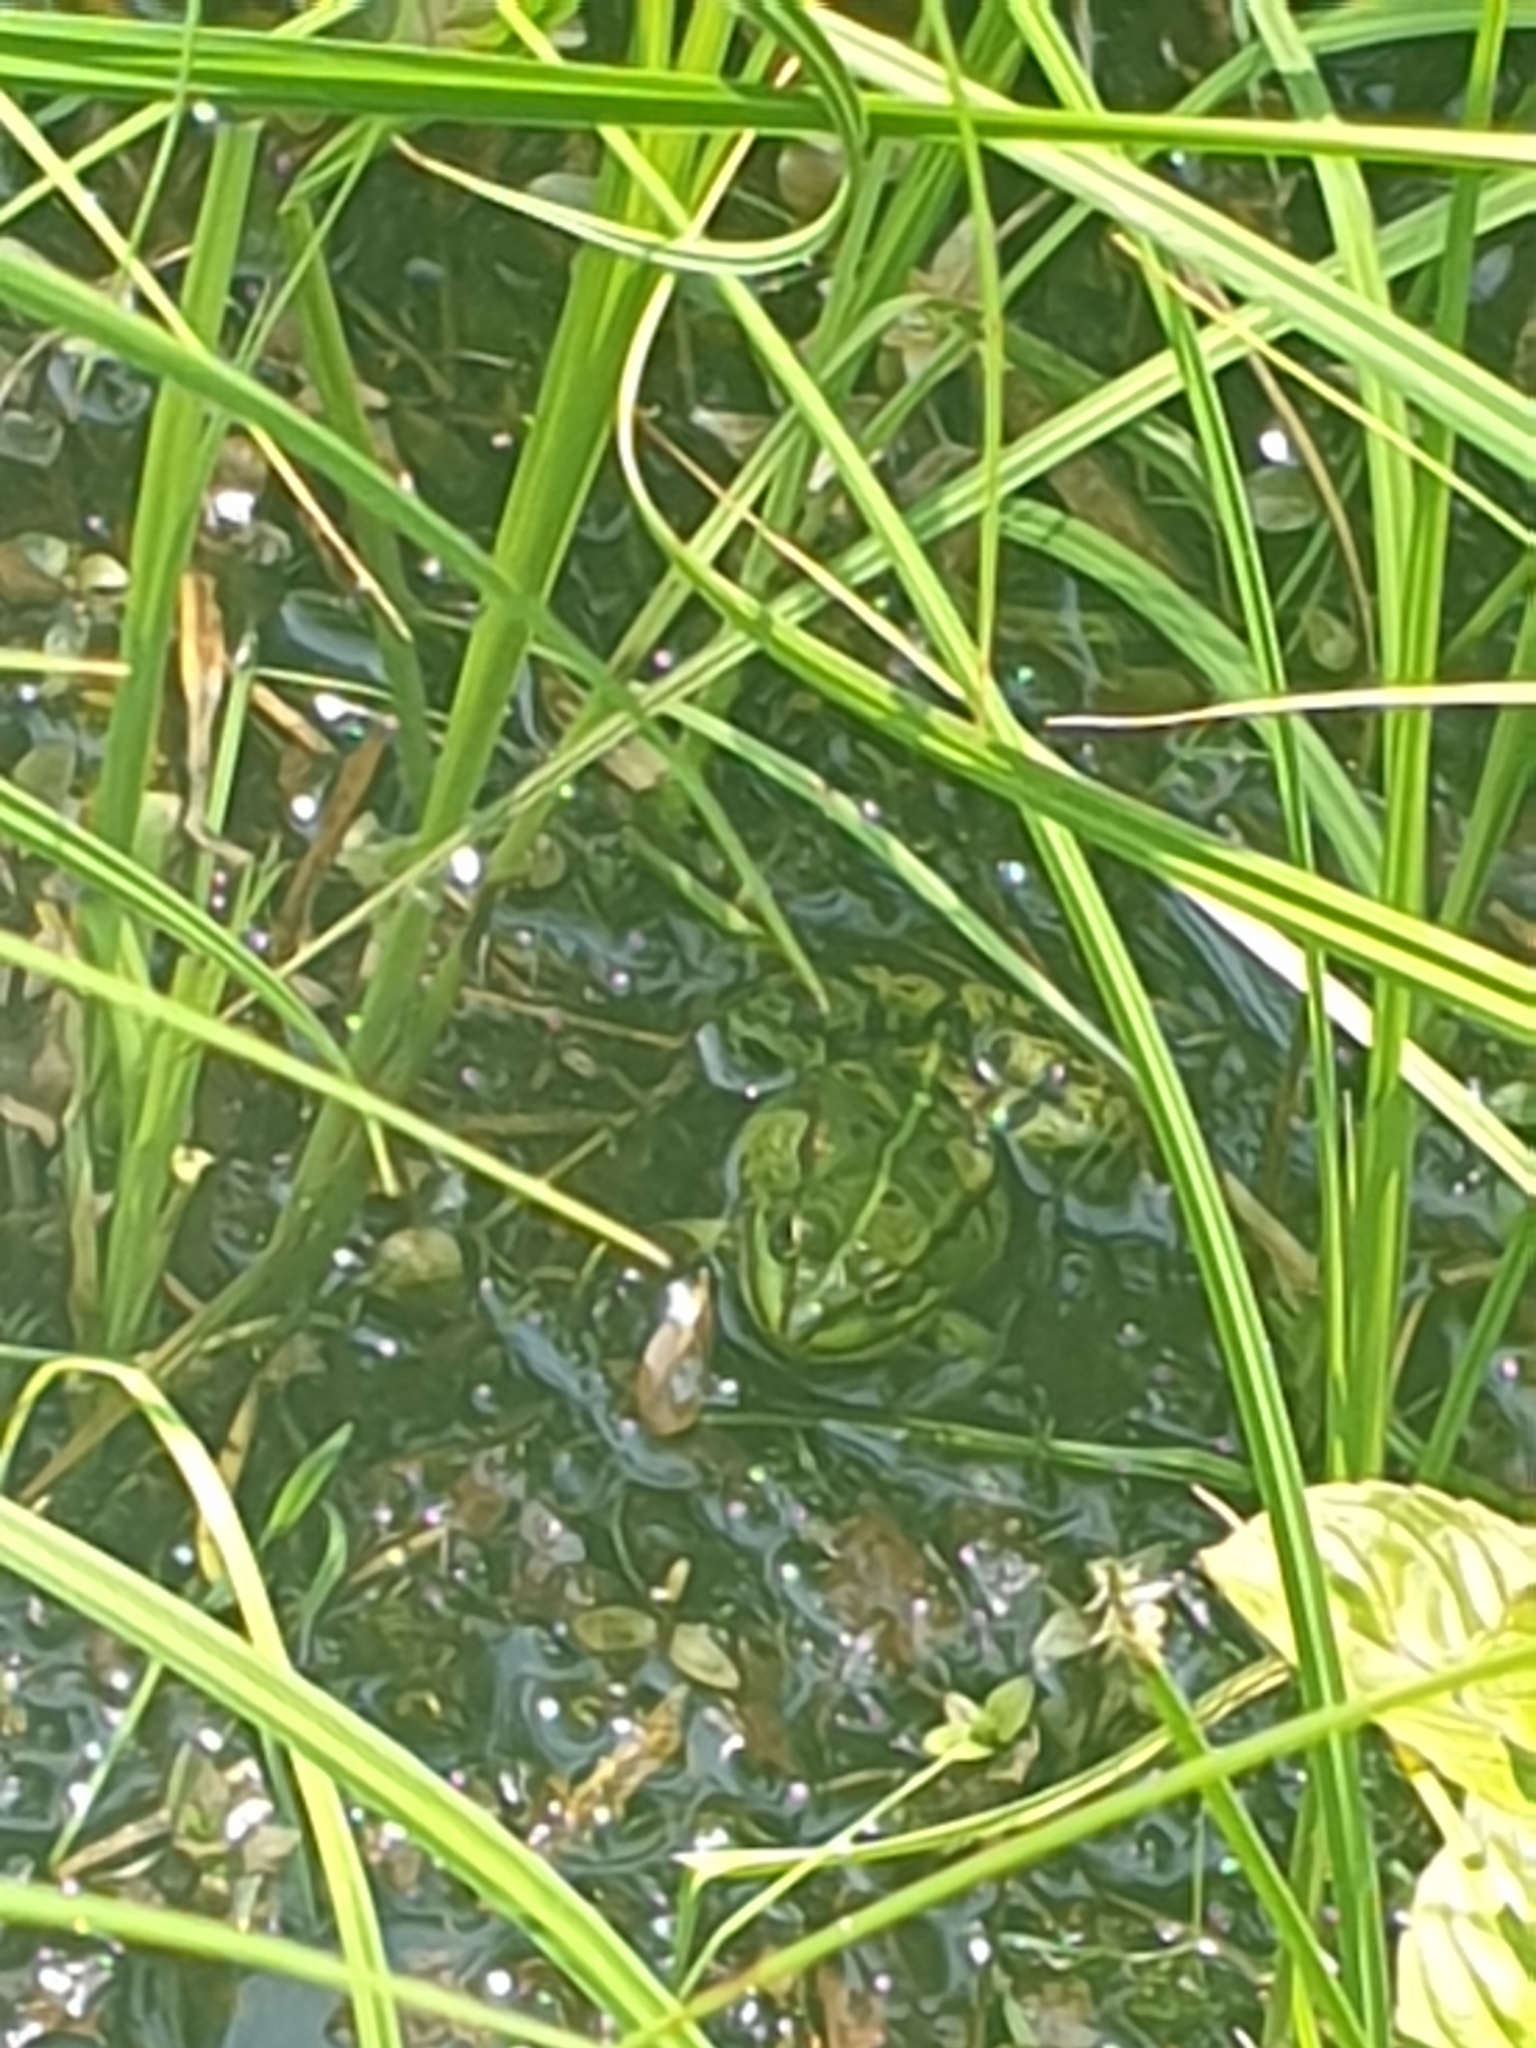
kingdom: Animalia
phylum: Chordata
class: Amphibia
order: Anura
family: Ranidae
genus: Pelophylax
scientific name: Pelophylax
